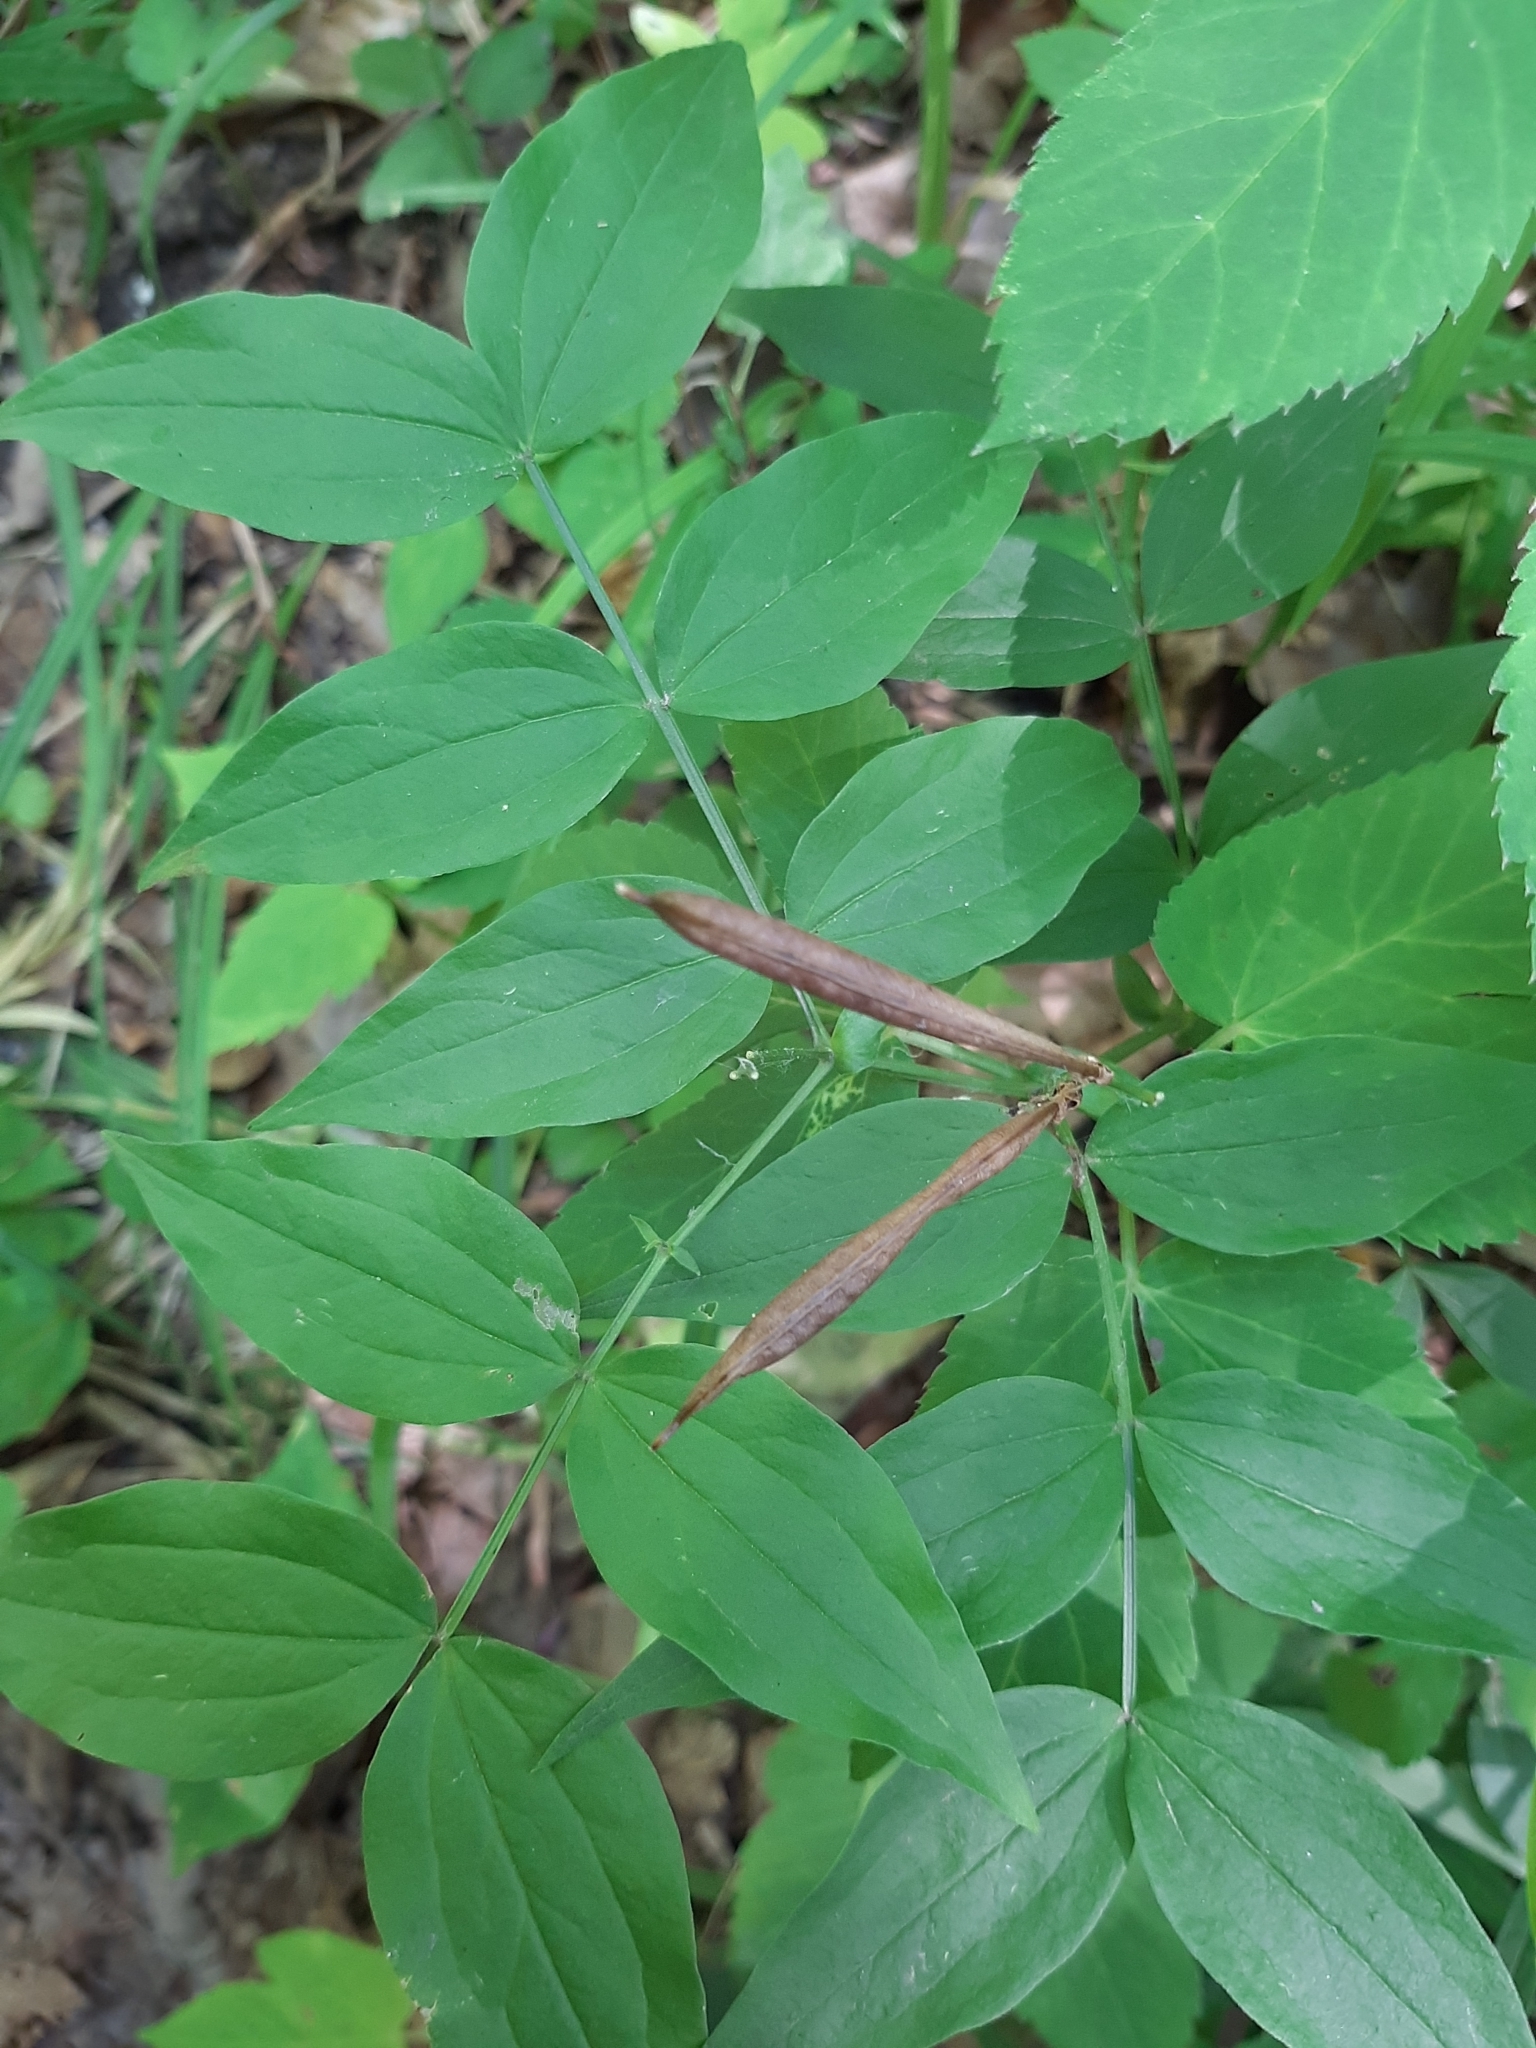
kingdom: Plantae
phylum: Tracheophyta
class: Magnoliopsida
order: Fabales
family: Fabaceae
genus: Lathyrus
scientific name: Lathyrus vernus
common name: Spring pea
